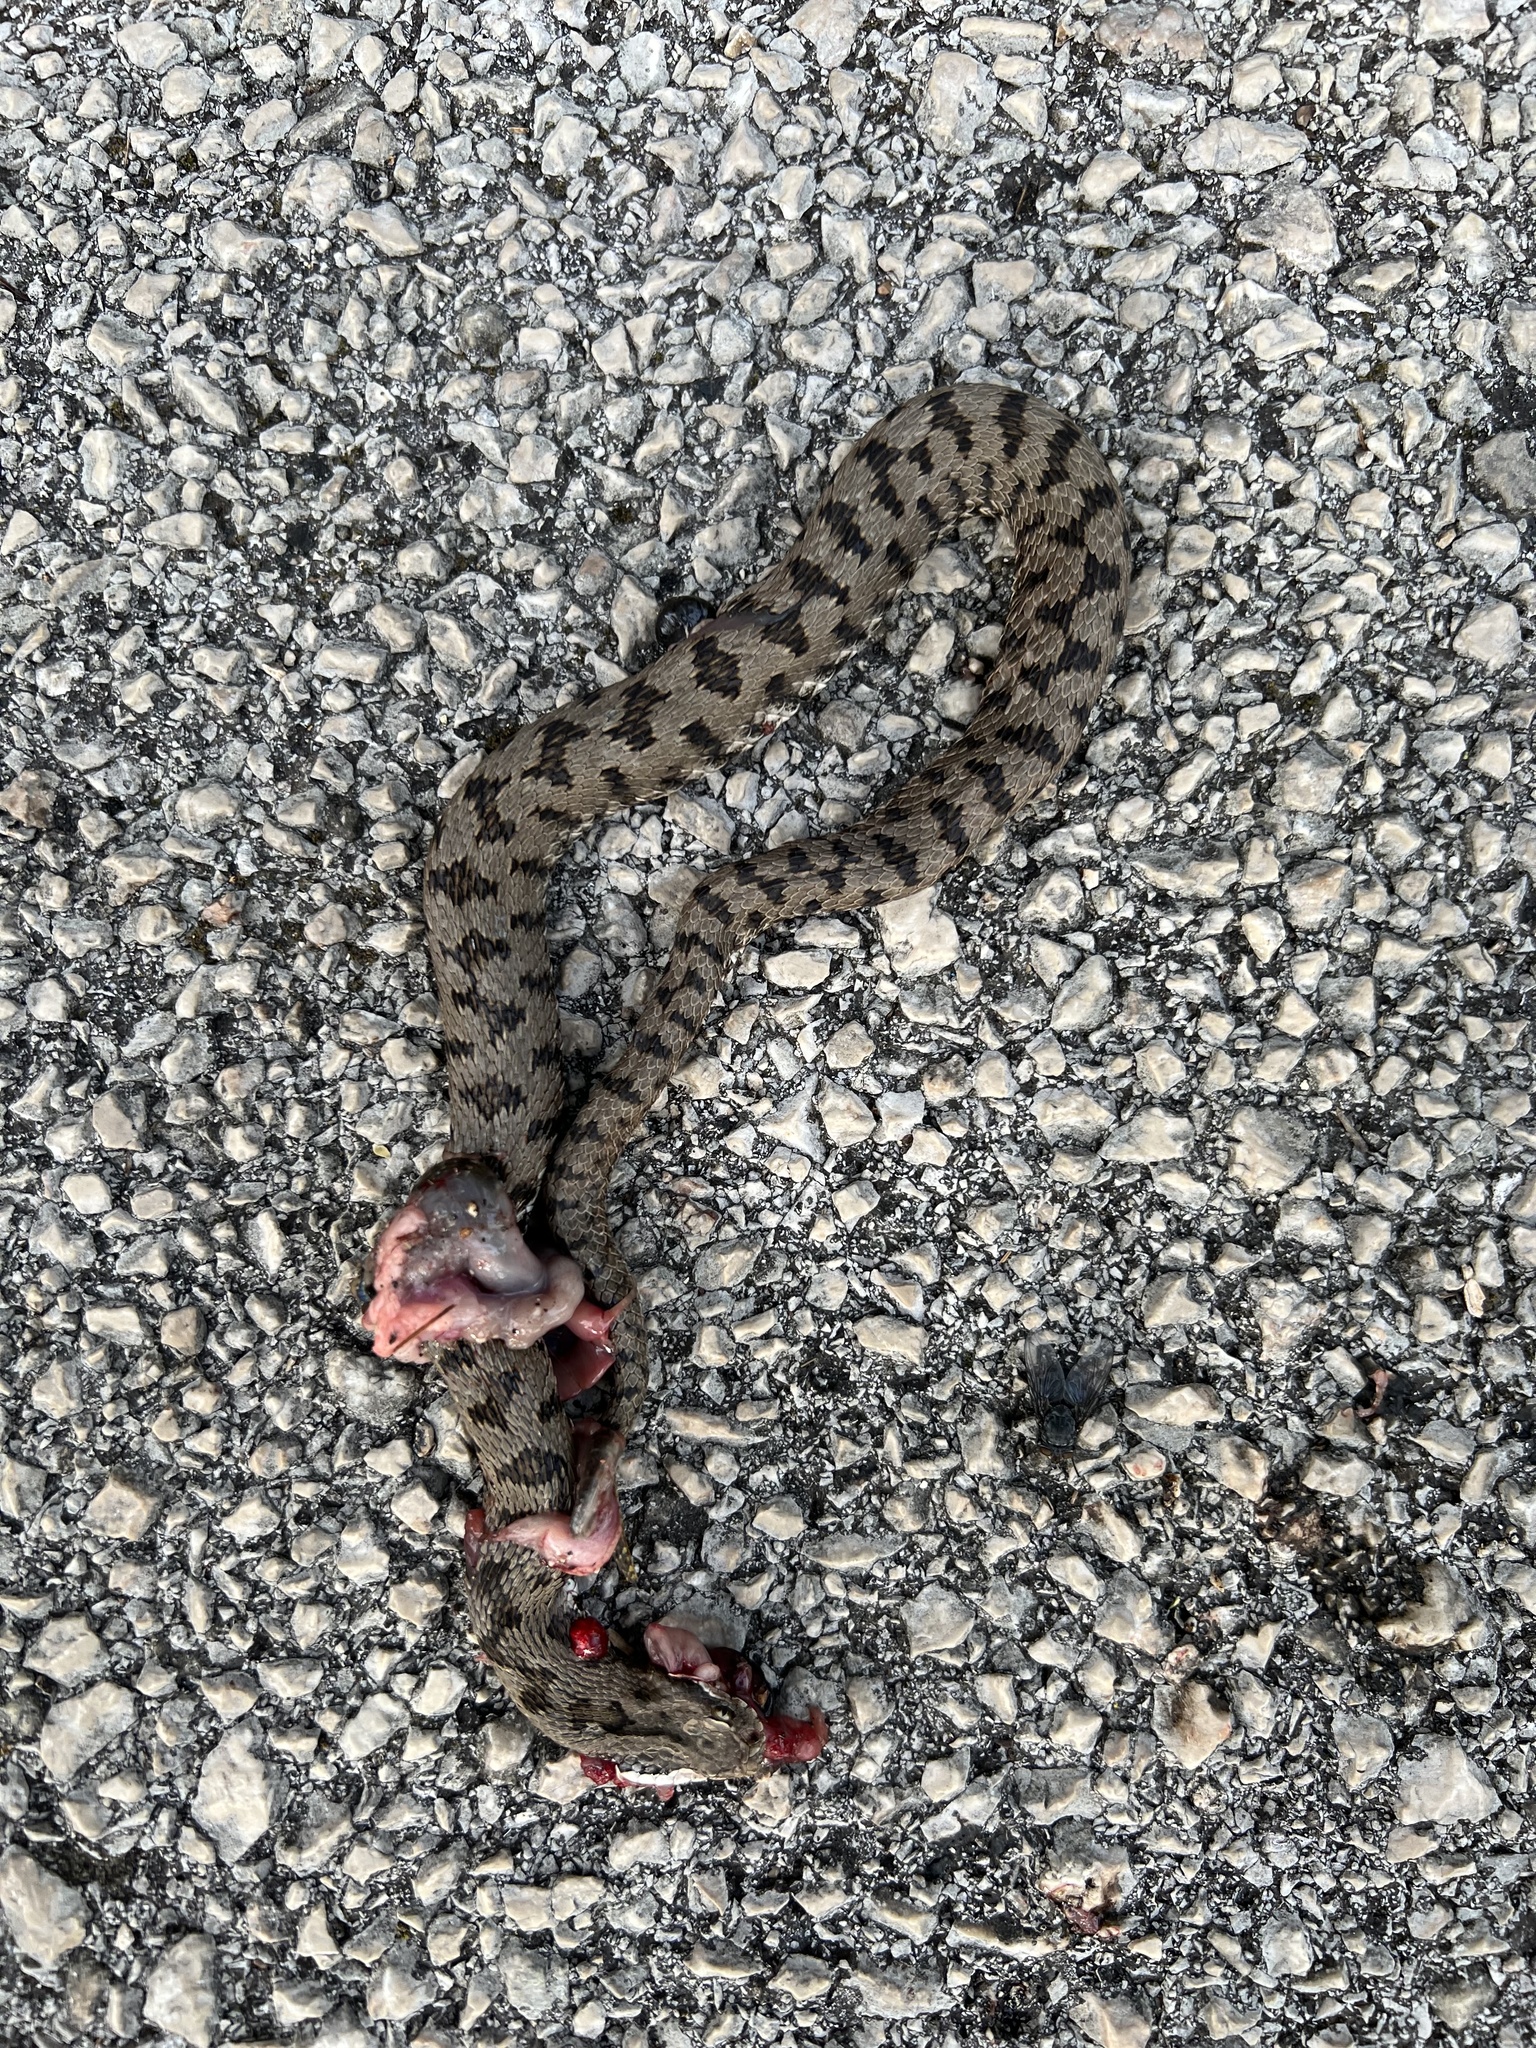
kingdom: Animalia
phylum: Chordata
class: Squamata
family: Viperidae
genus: Vipera
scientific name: Vipera aspis
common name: Asp viper
